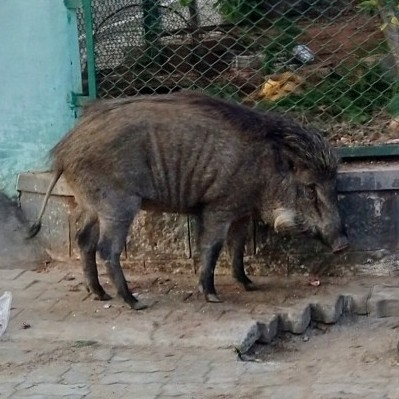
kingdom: Animalia
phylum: Chordata
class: Mammalia
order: Artiodactyla
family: Suidae
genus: Sus
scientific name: Sus scrofa
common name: Wild boar
